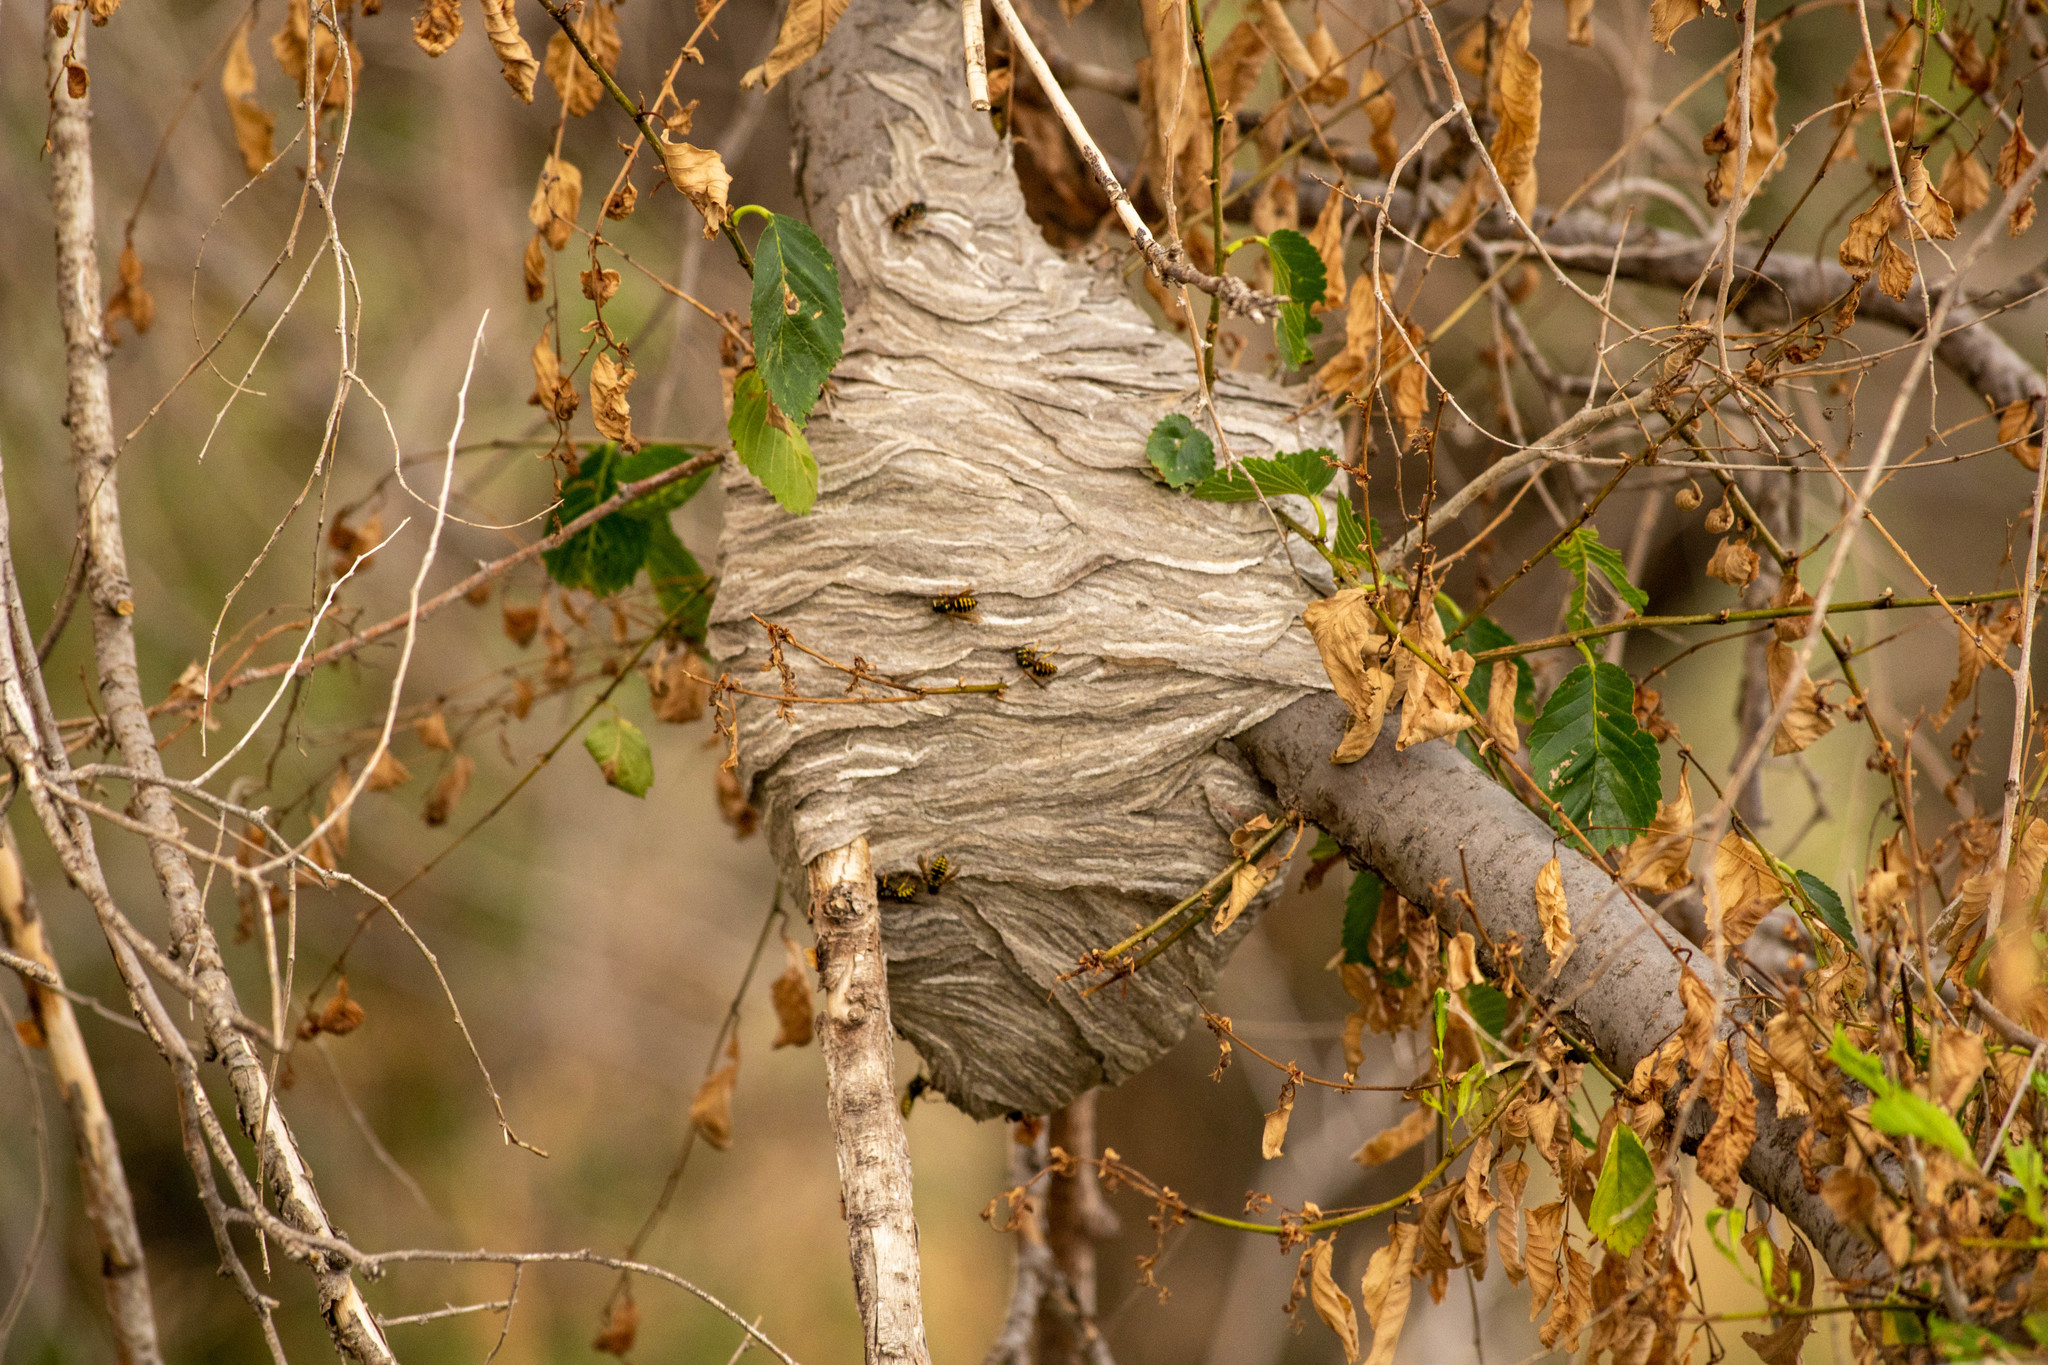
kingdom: Animalia
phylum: Arthropoda
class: Insecta
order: Hymenoptera
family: Vespidae
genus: Dolichovespula
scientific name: Dolichovespula arenaria
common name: Aerial yellowjacket
